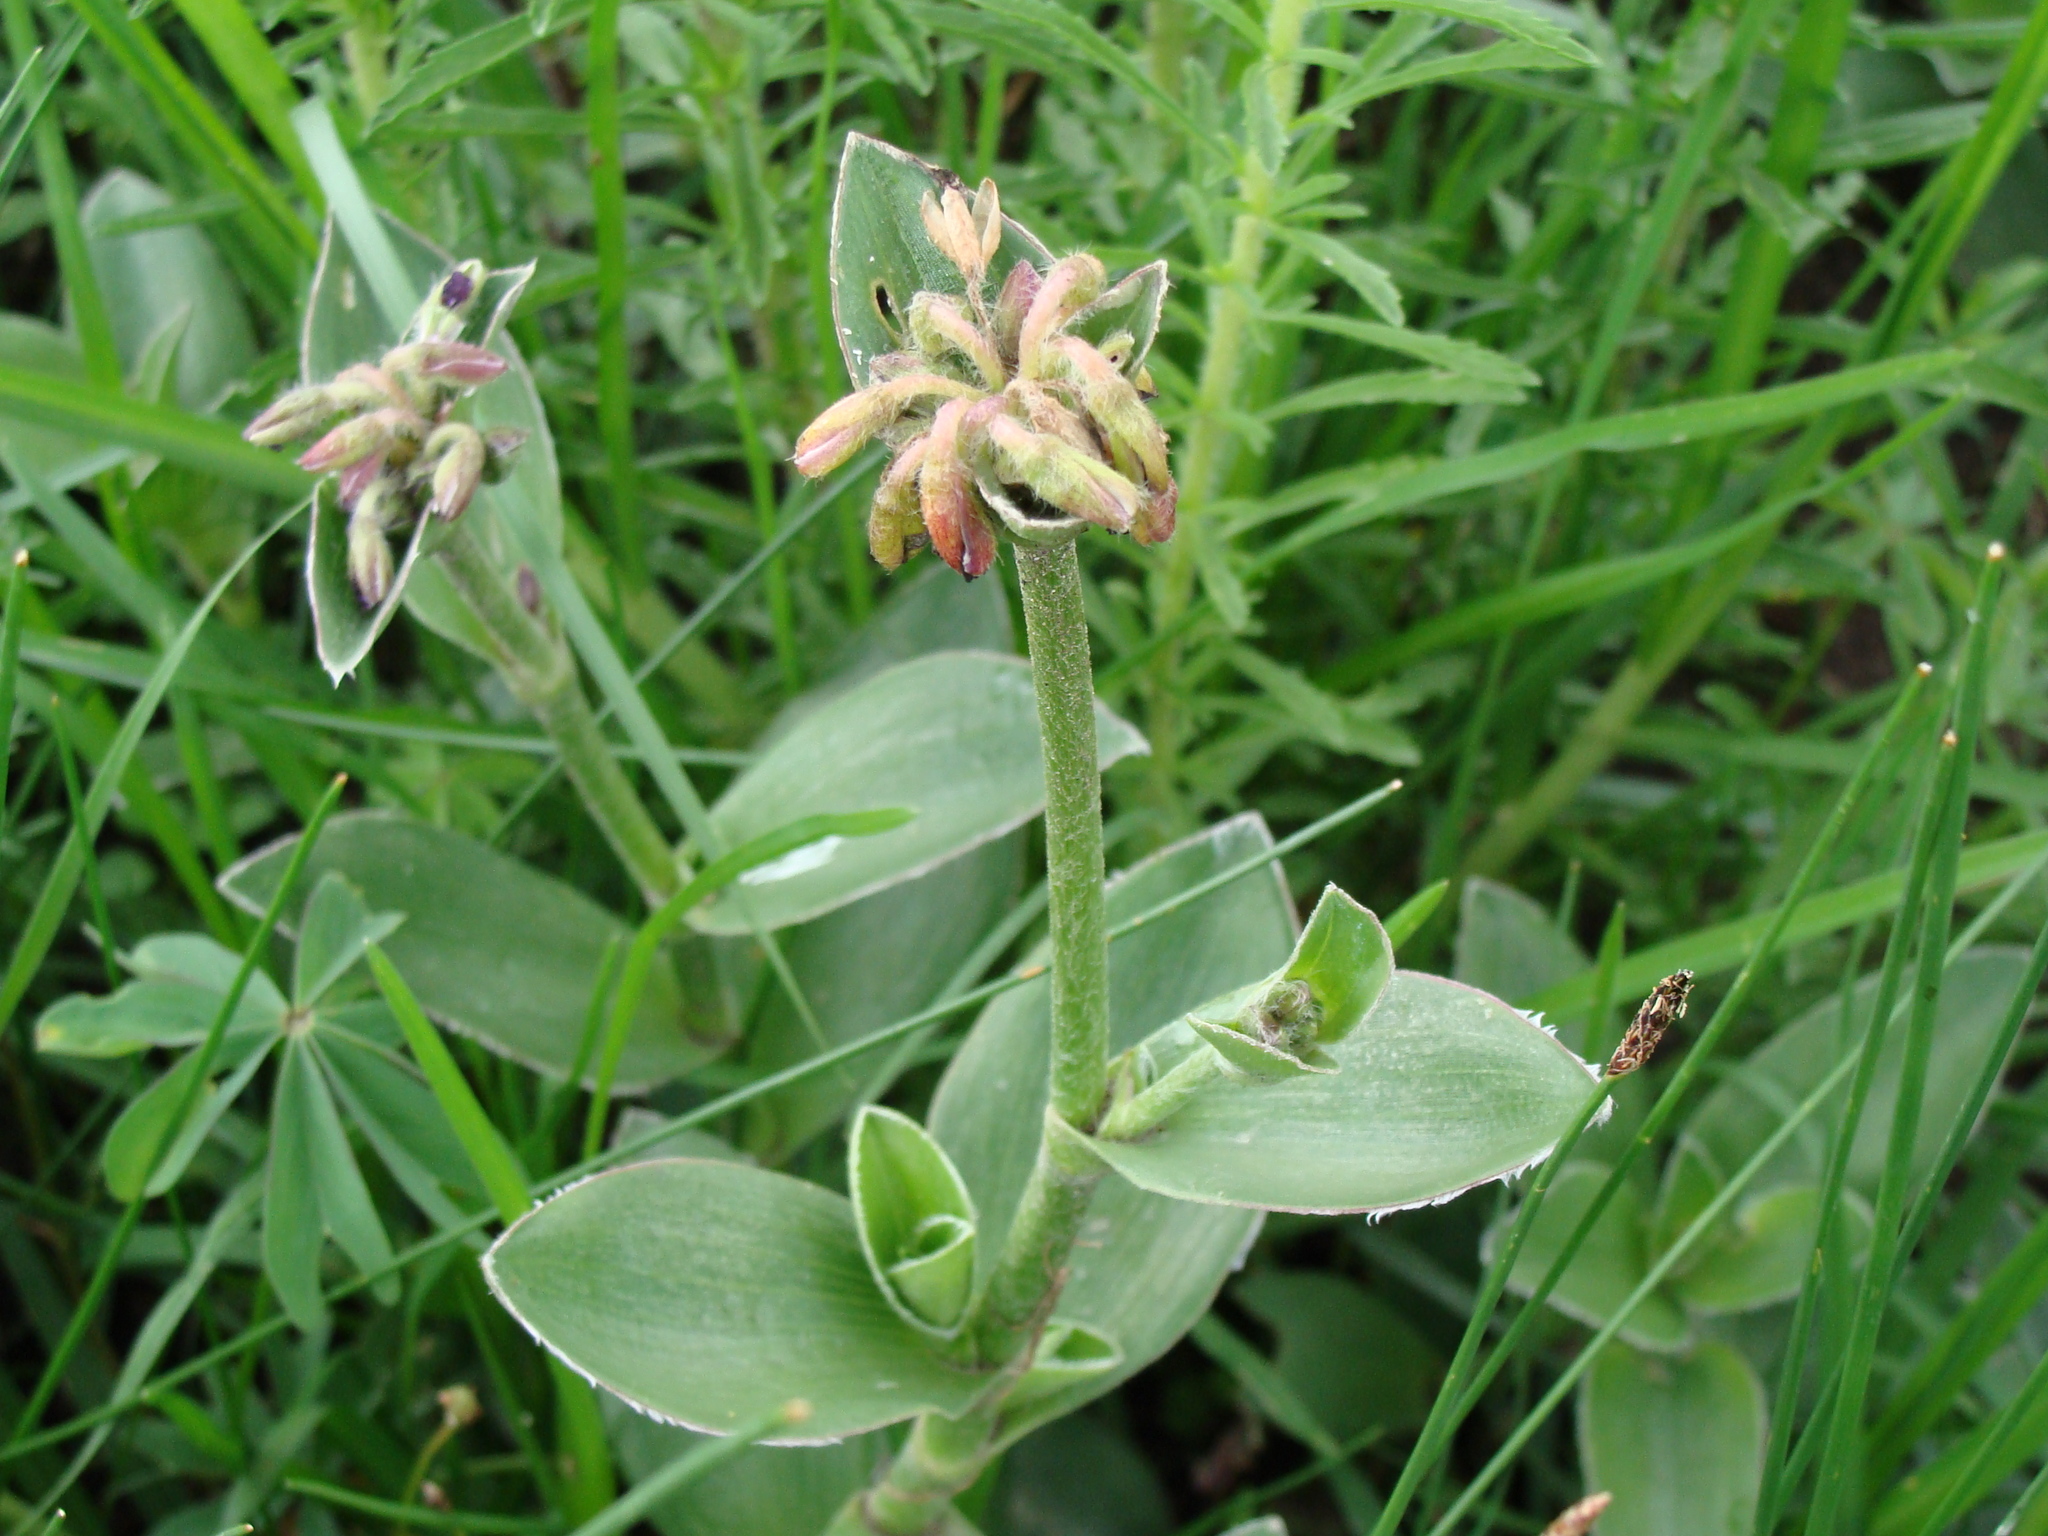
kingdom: Plantae
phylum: Tracheophyta
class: Liliopsida
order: Commelinales
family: Commelinaceae
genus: Tradescantia
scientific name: Tradescantia crassifolia
